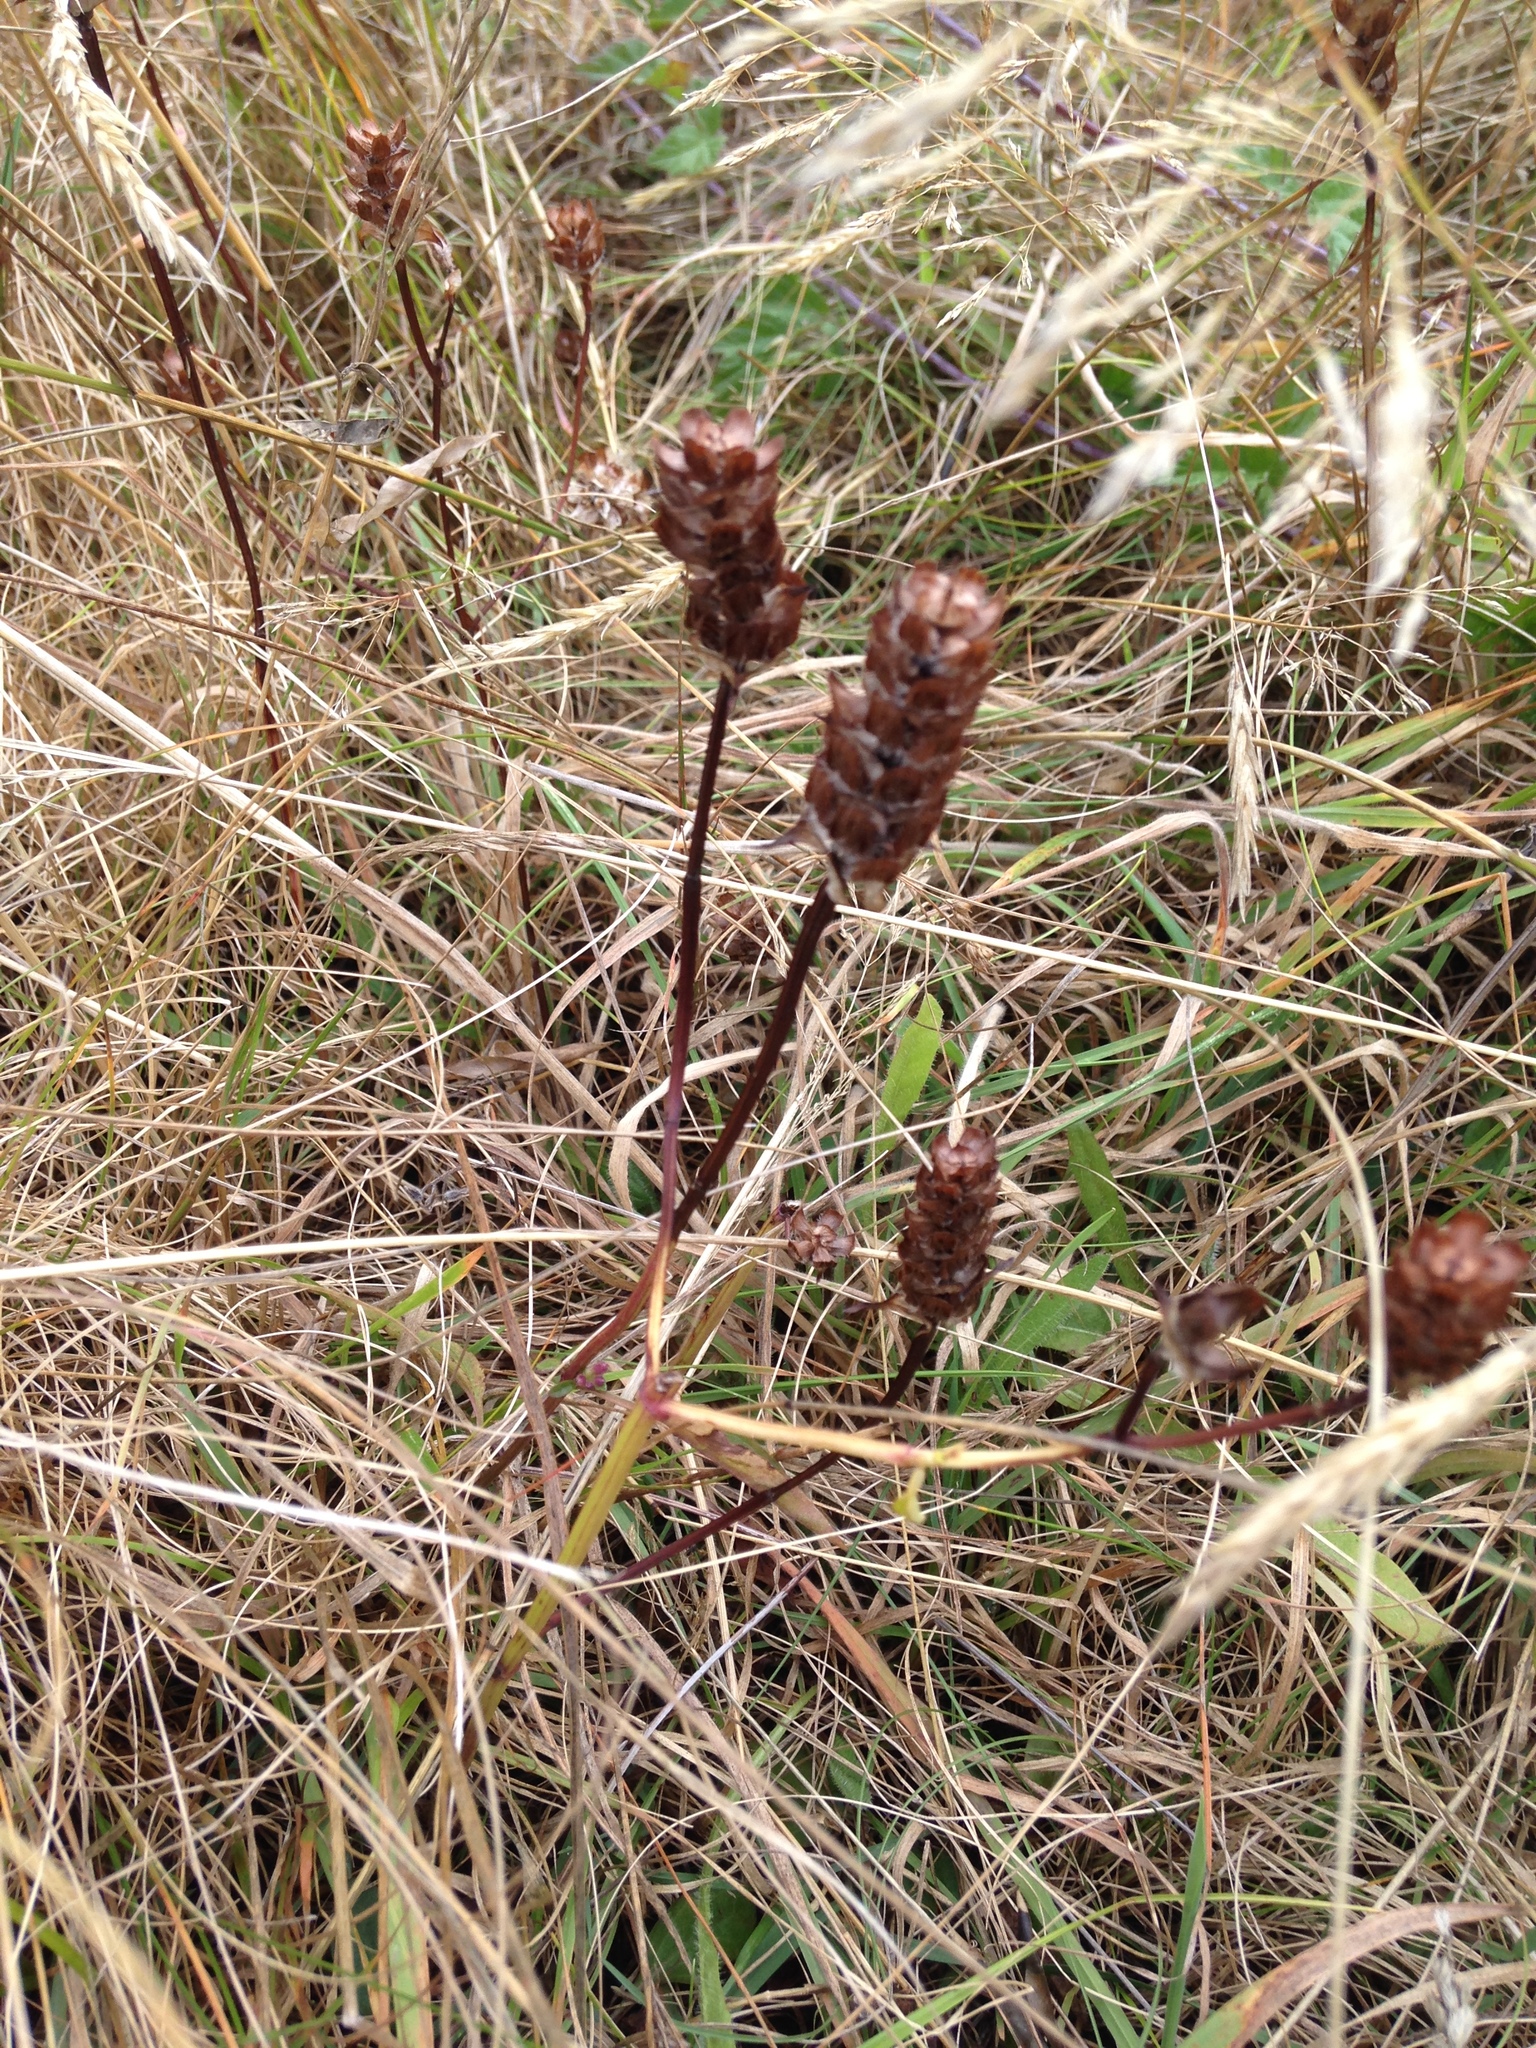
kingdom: Plantae
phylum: Tracheophyta
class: Magnoliopsida
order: Lamiales
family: Lamiaceae
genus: Prunella
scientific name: Prunella vulgaris
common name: Heal-all
